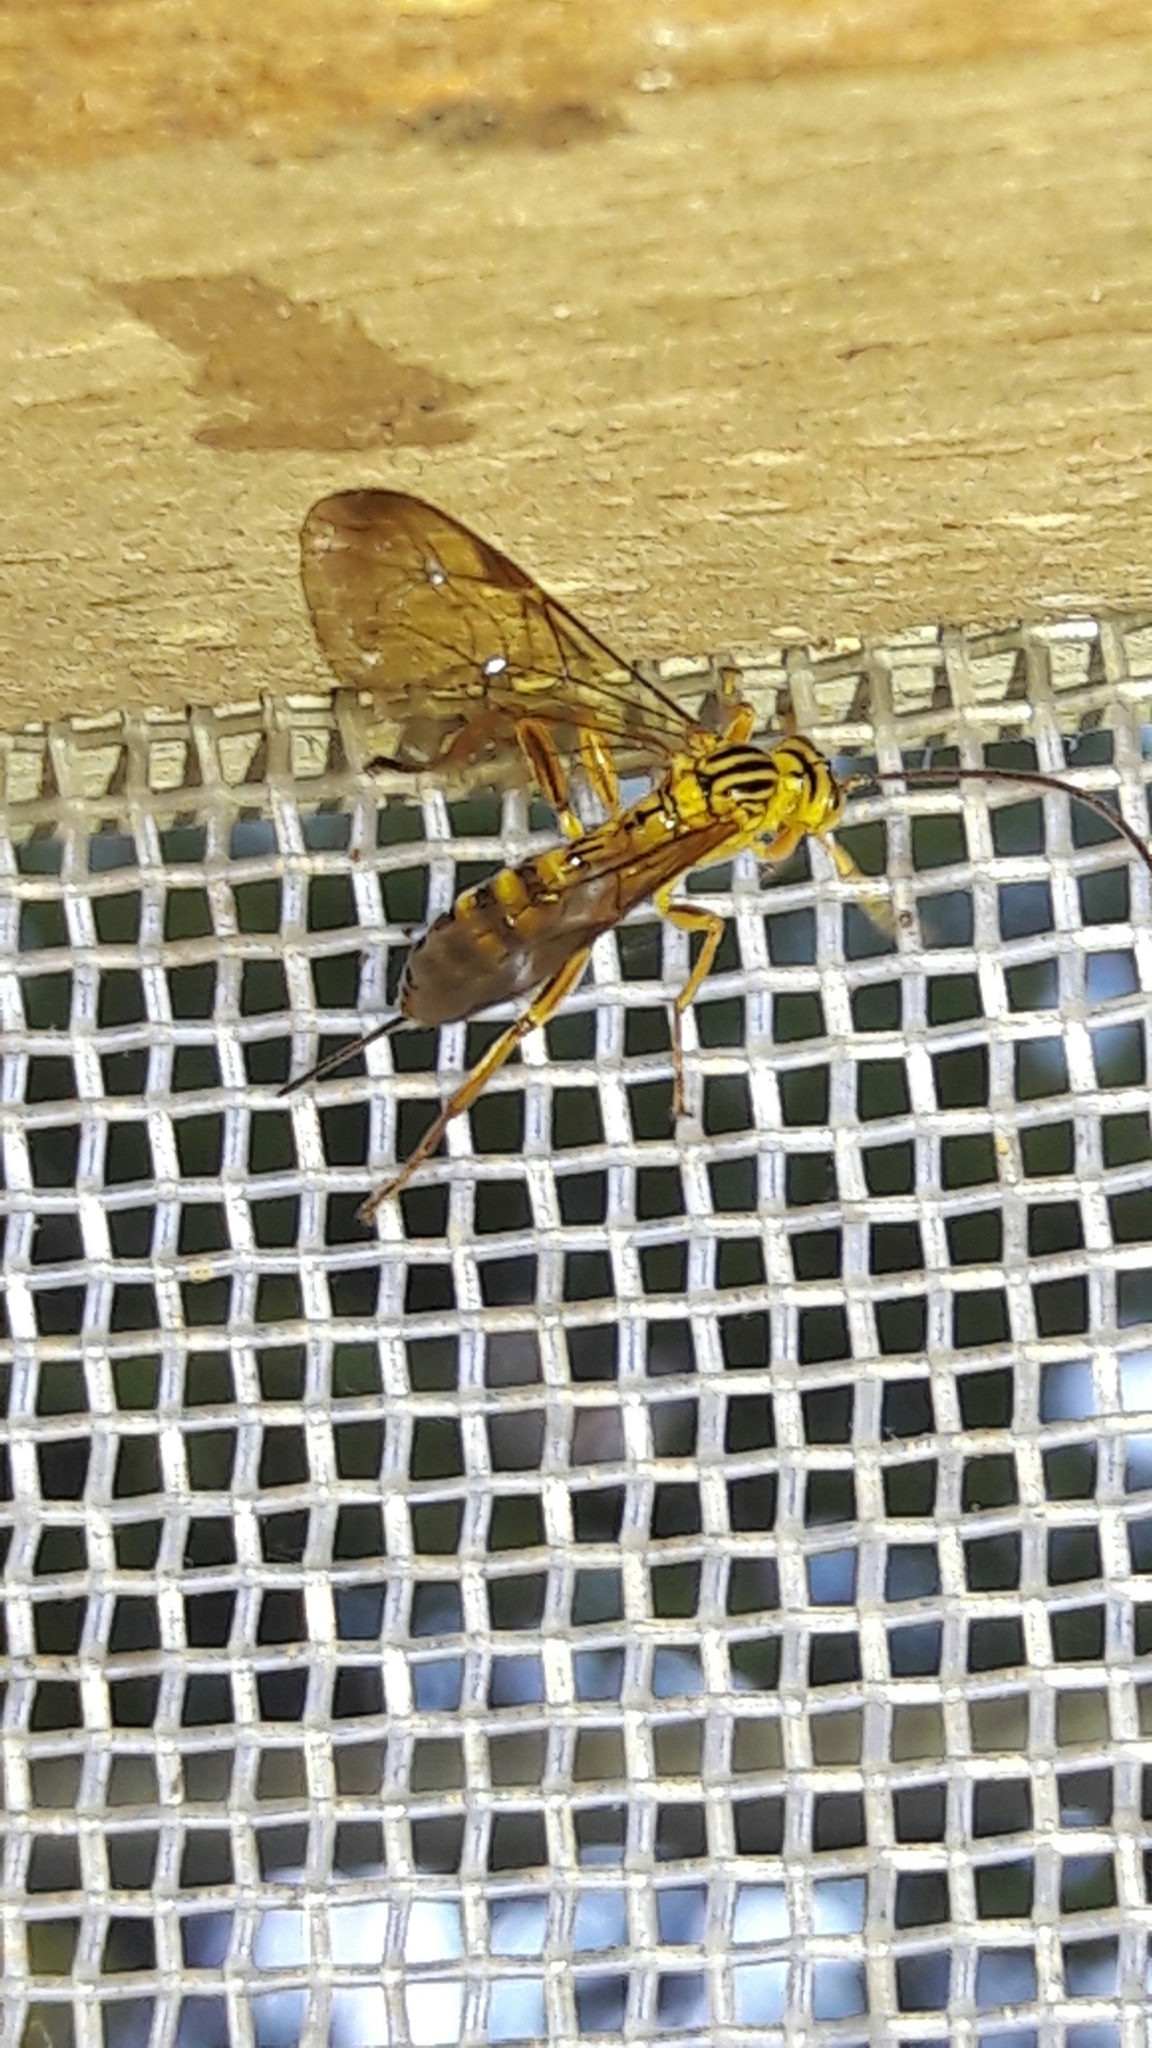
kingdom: Animalia
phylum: Arthropoda
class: Insecta
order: Hymenoptera
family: Ichneumonidae
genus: Neotheronia
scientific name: Neotheronia lineata
